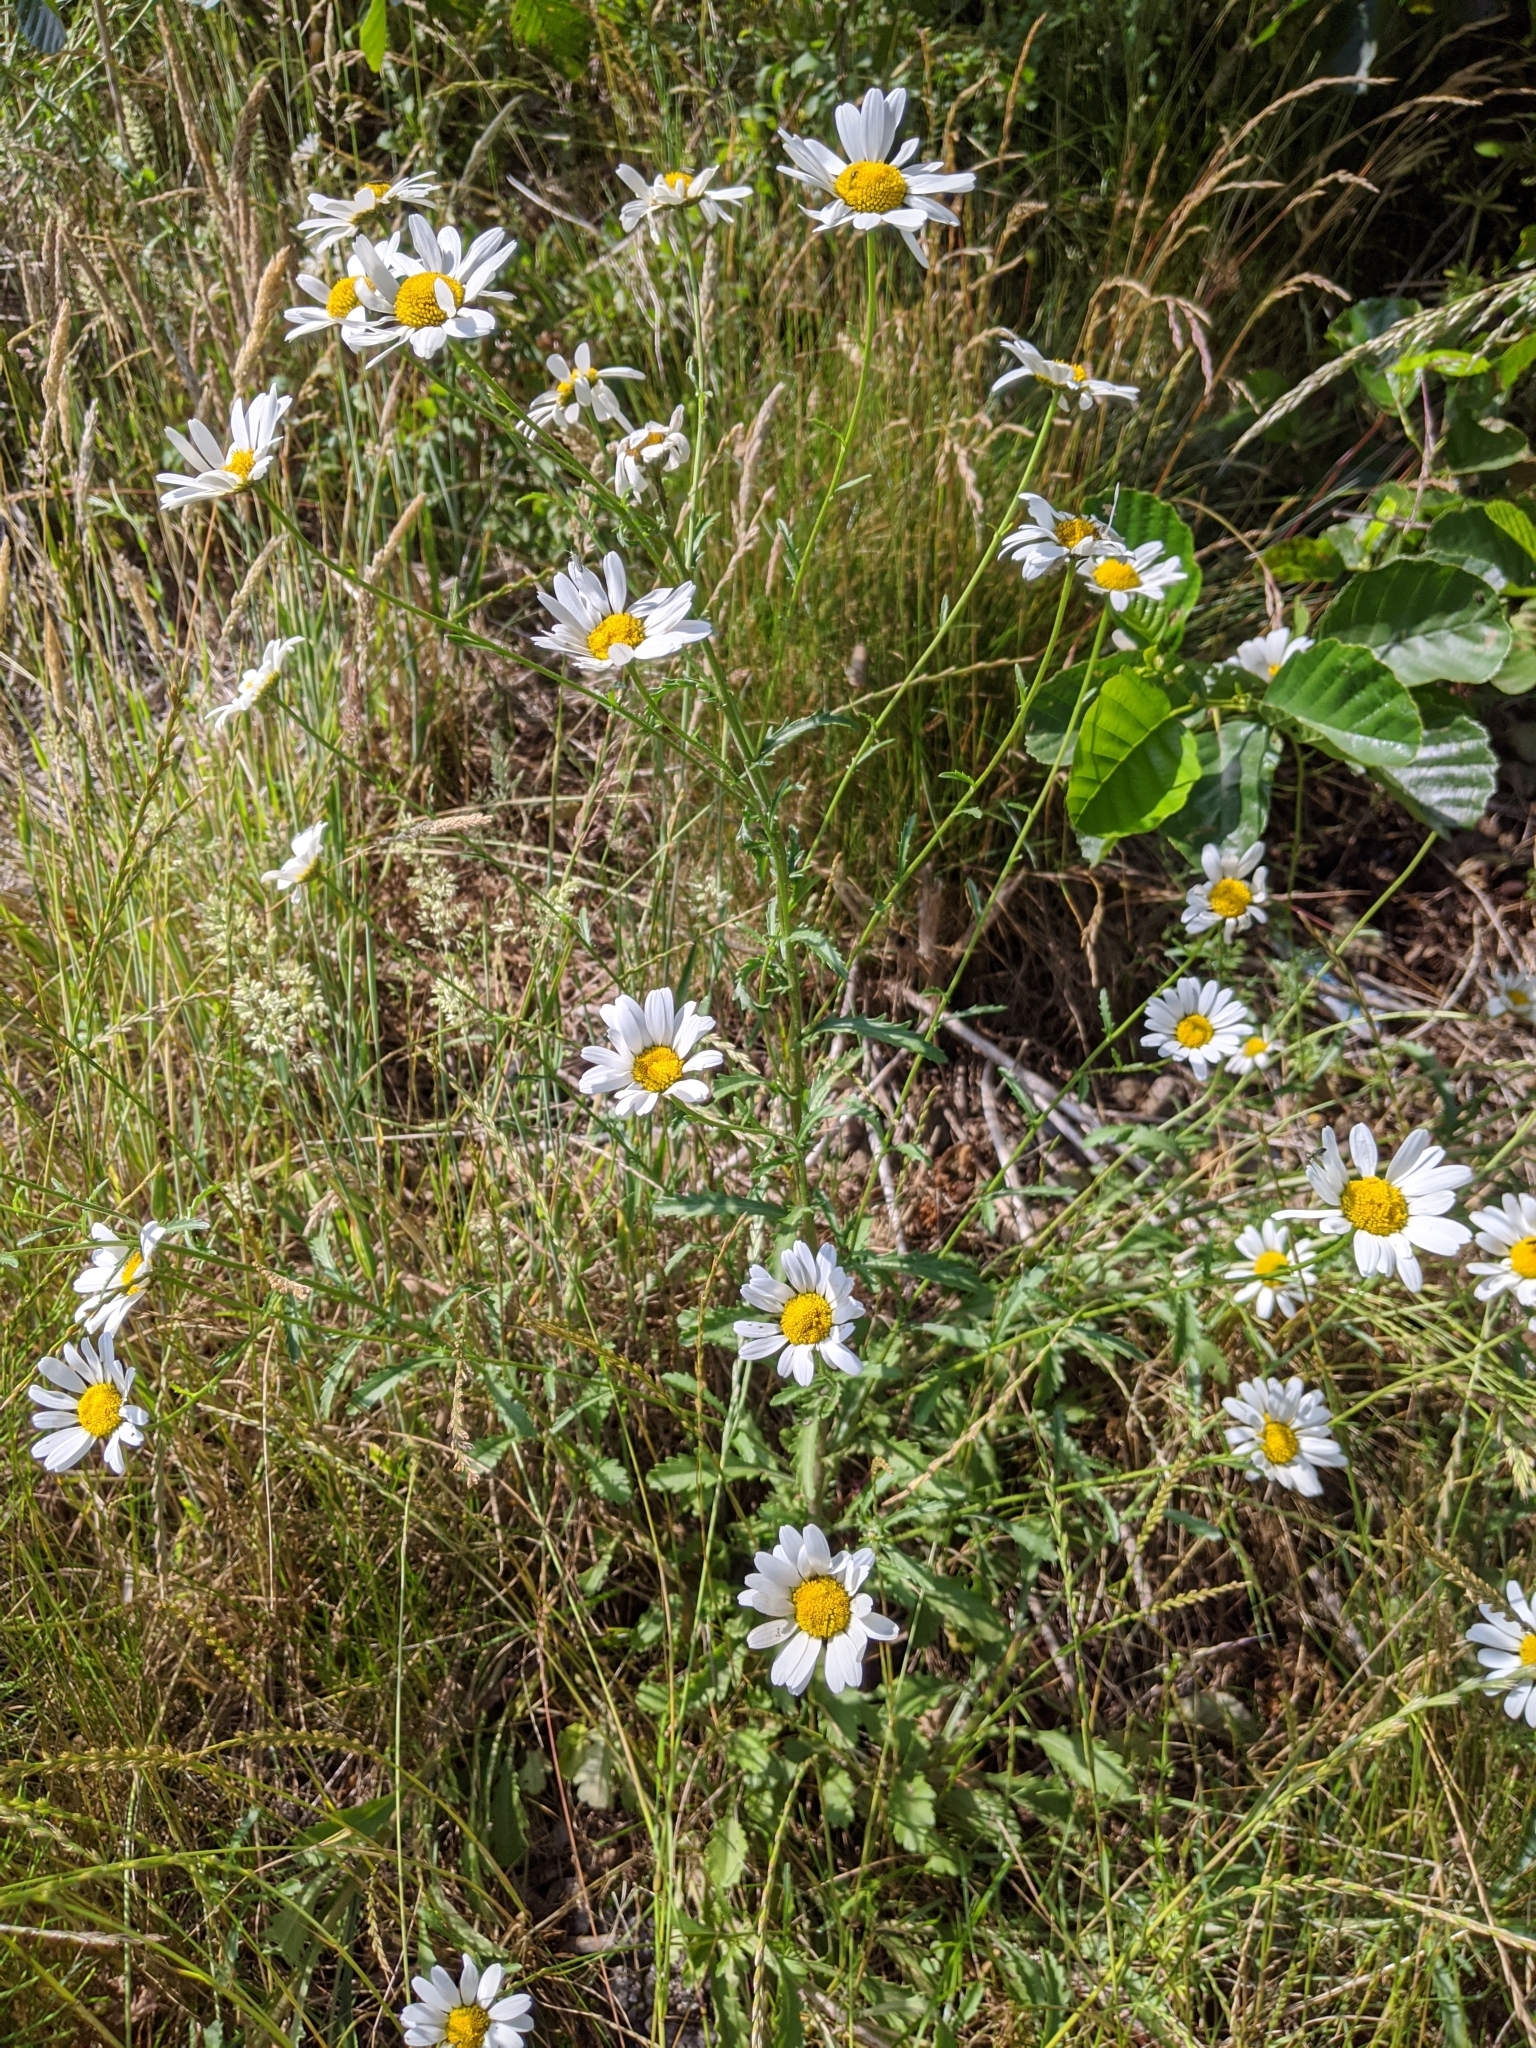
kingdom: Plantae
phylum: Tracheophyta
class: Magnoliopsida
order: Asterales
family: Asteraceae
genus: Leucanthemum
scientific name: Leucanthemum vulgare
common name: Oxeye daisy
